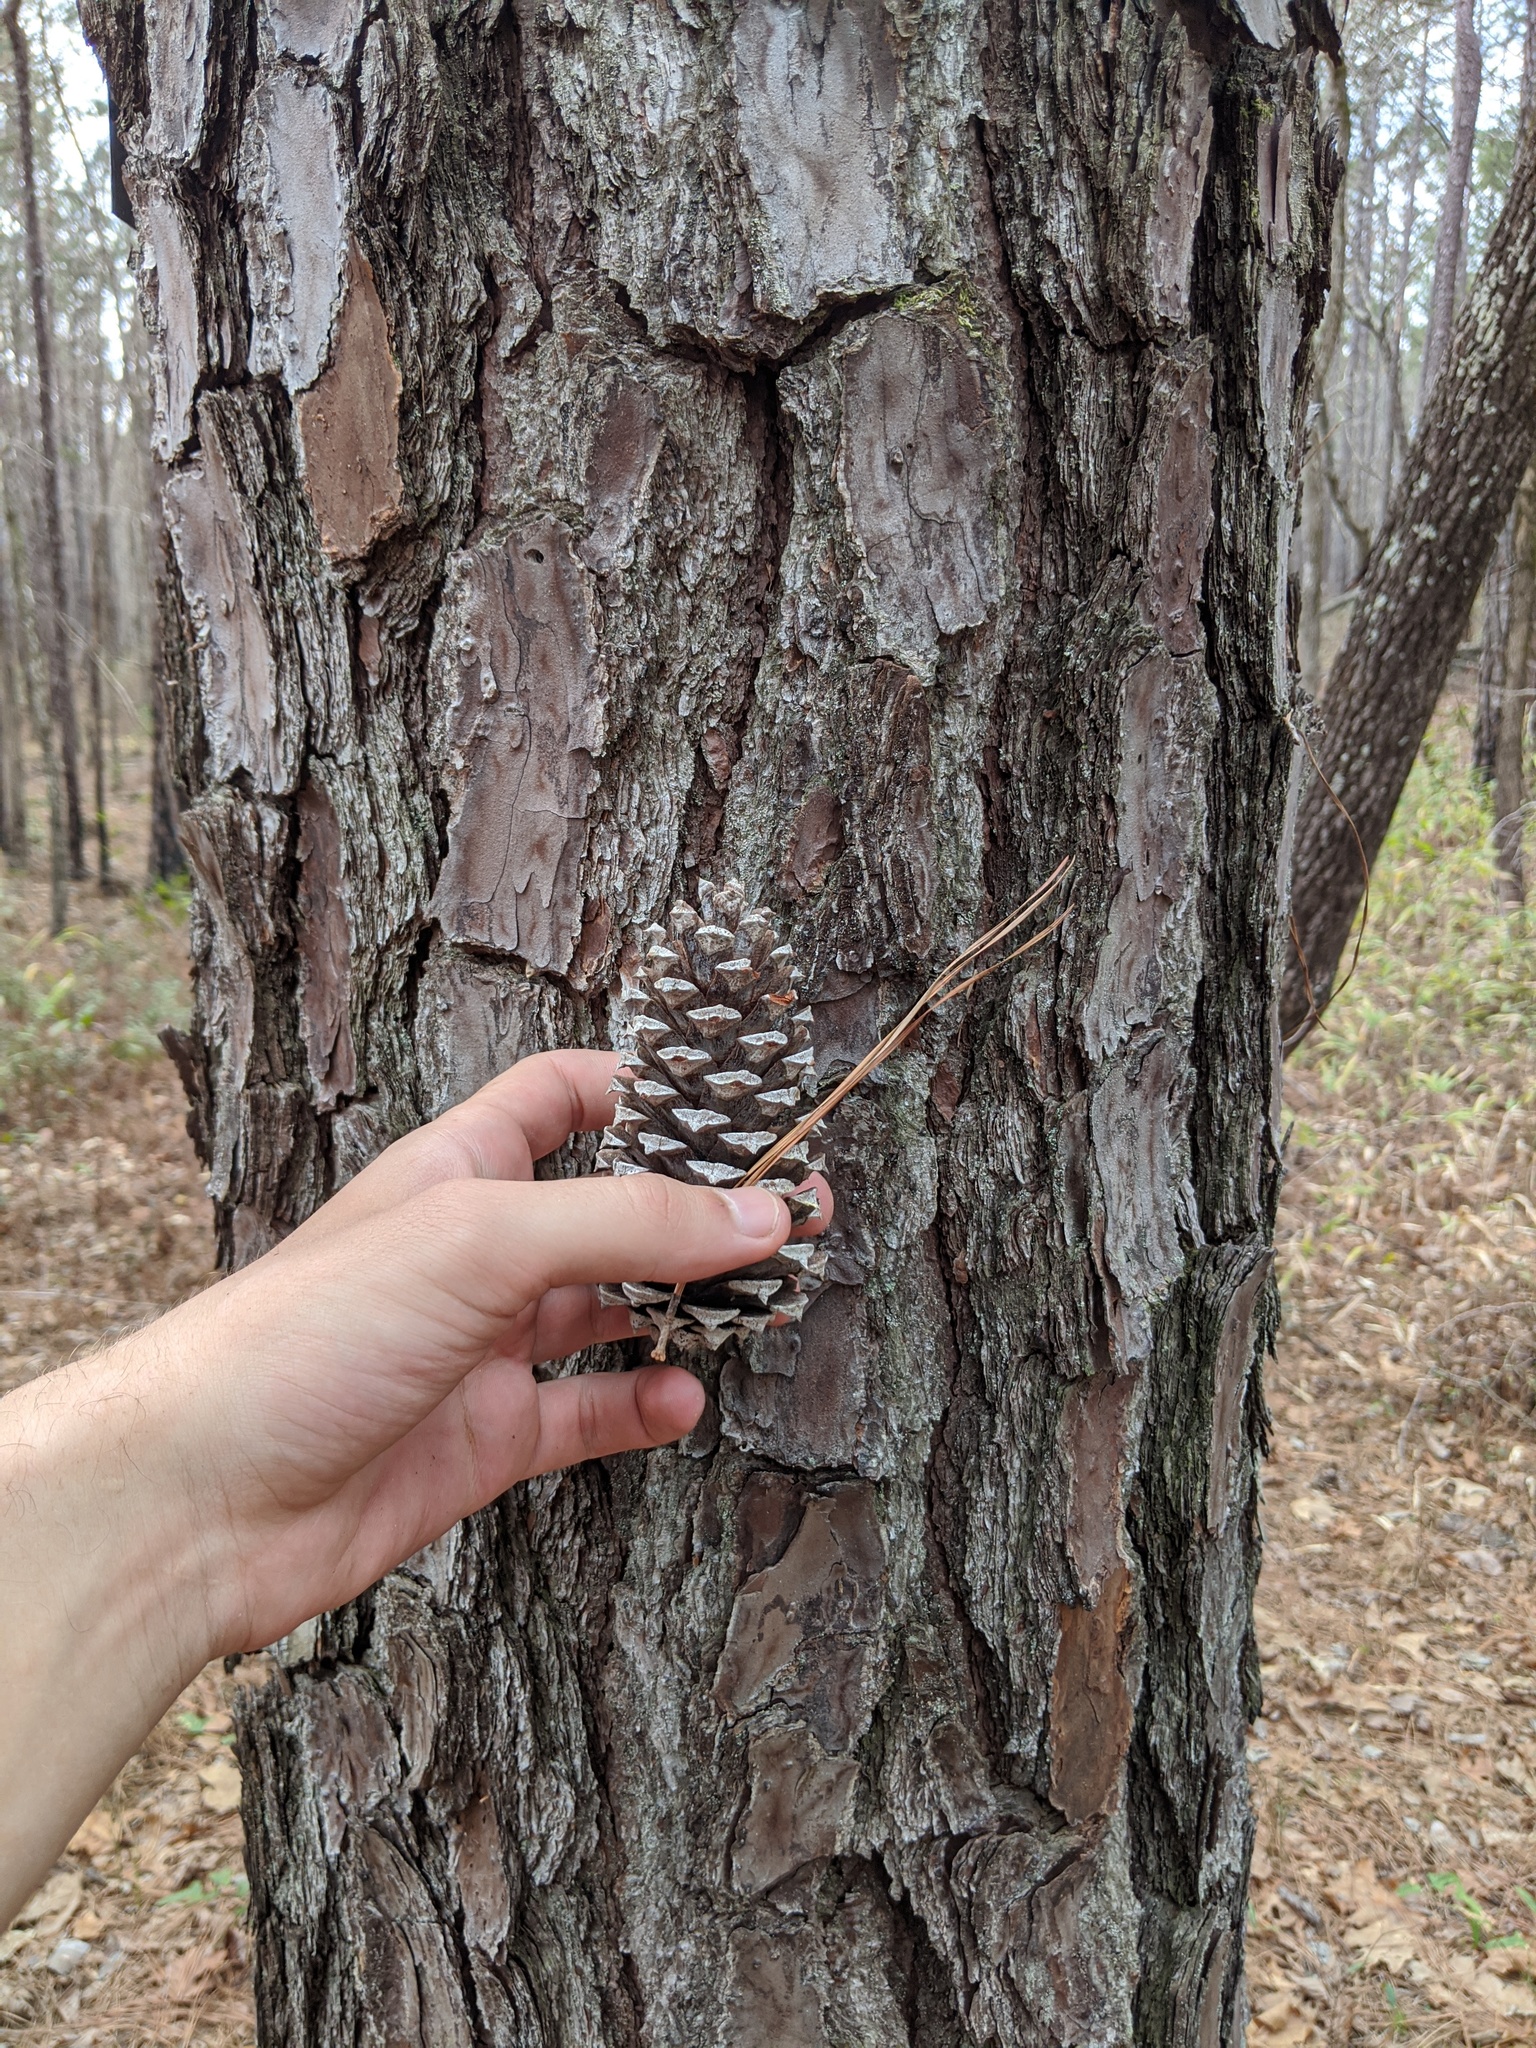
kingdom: Plantae
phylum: Tracheophyta
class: Pinopsida
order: Pinales
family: Pinaceae
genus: Pinus
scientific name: Pinus taeda
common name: Loblolly pine
